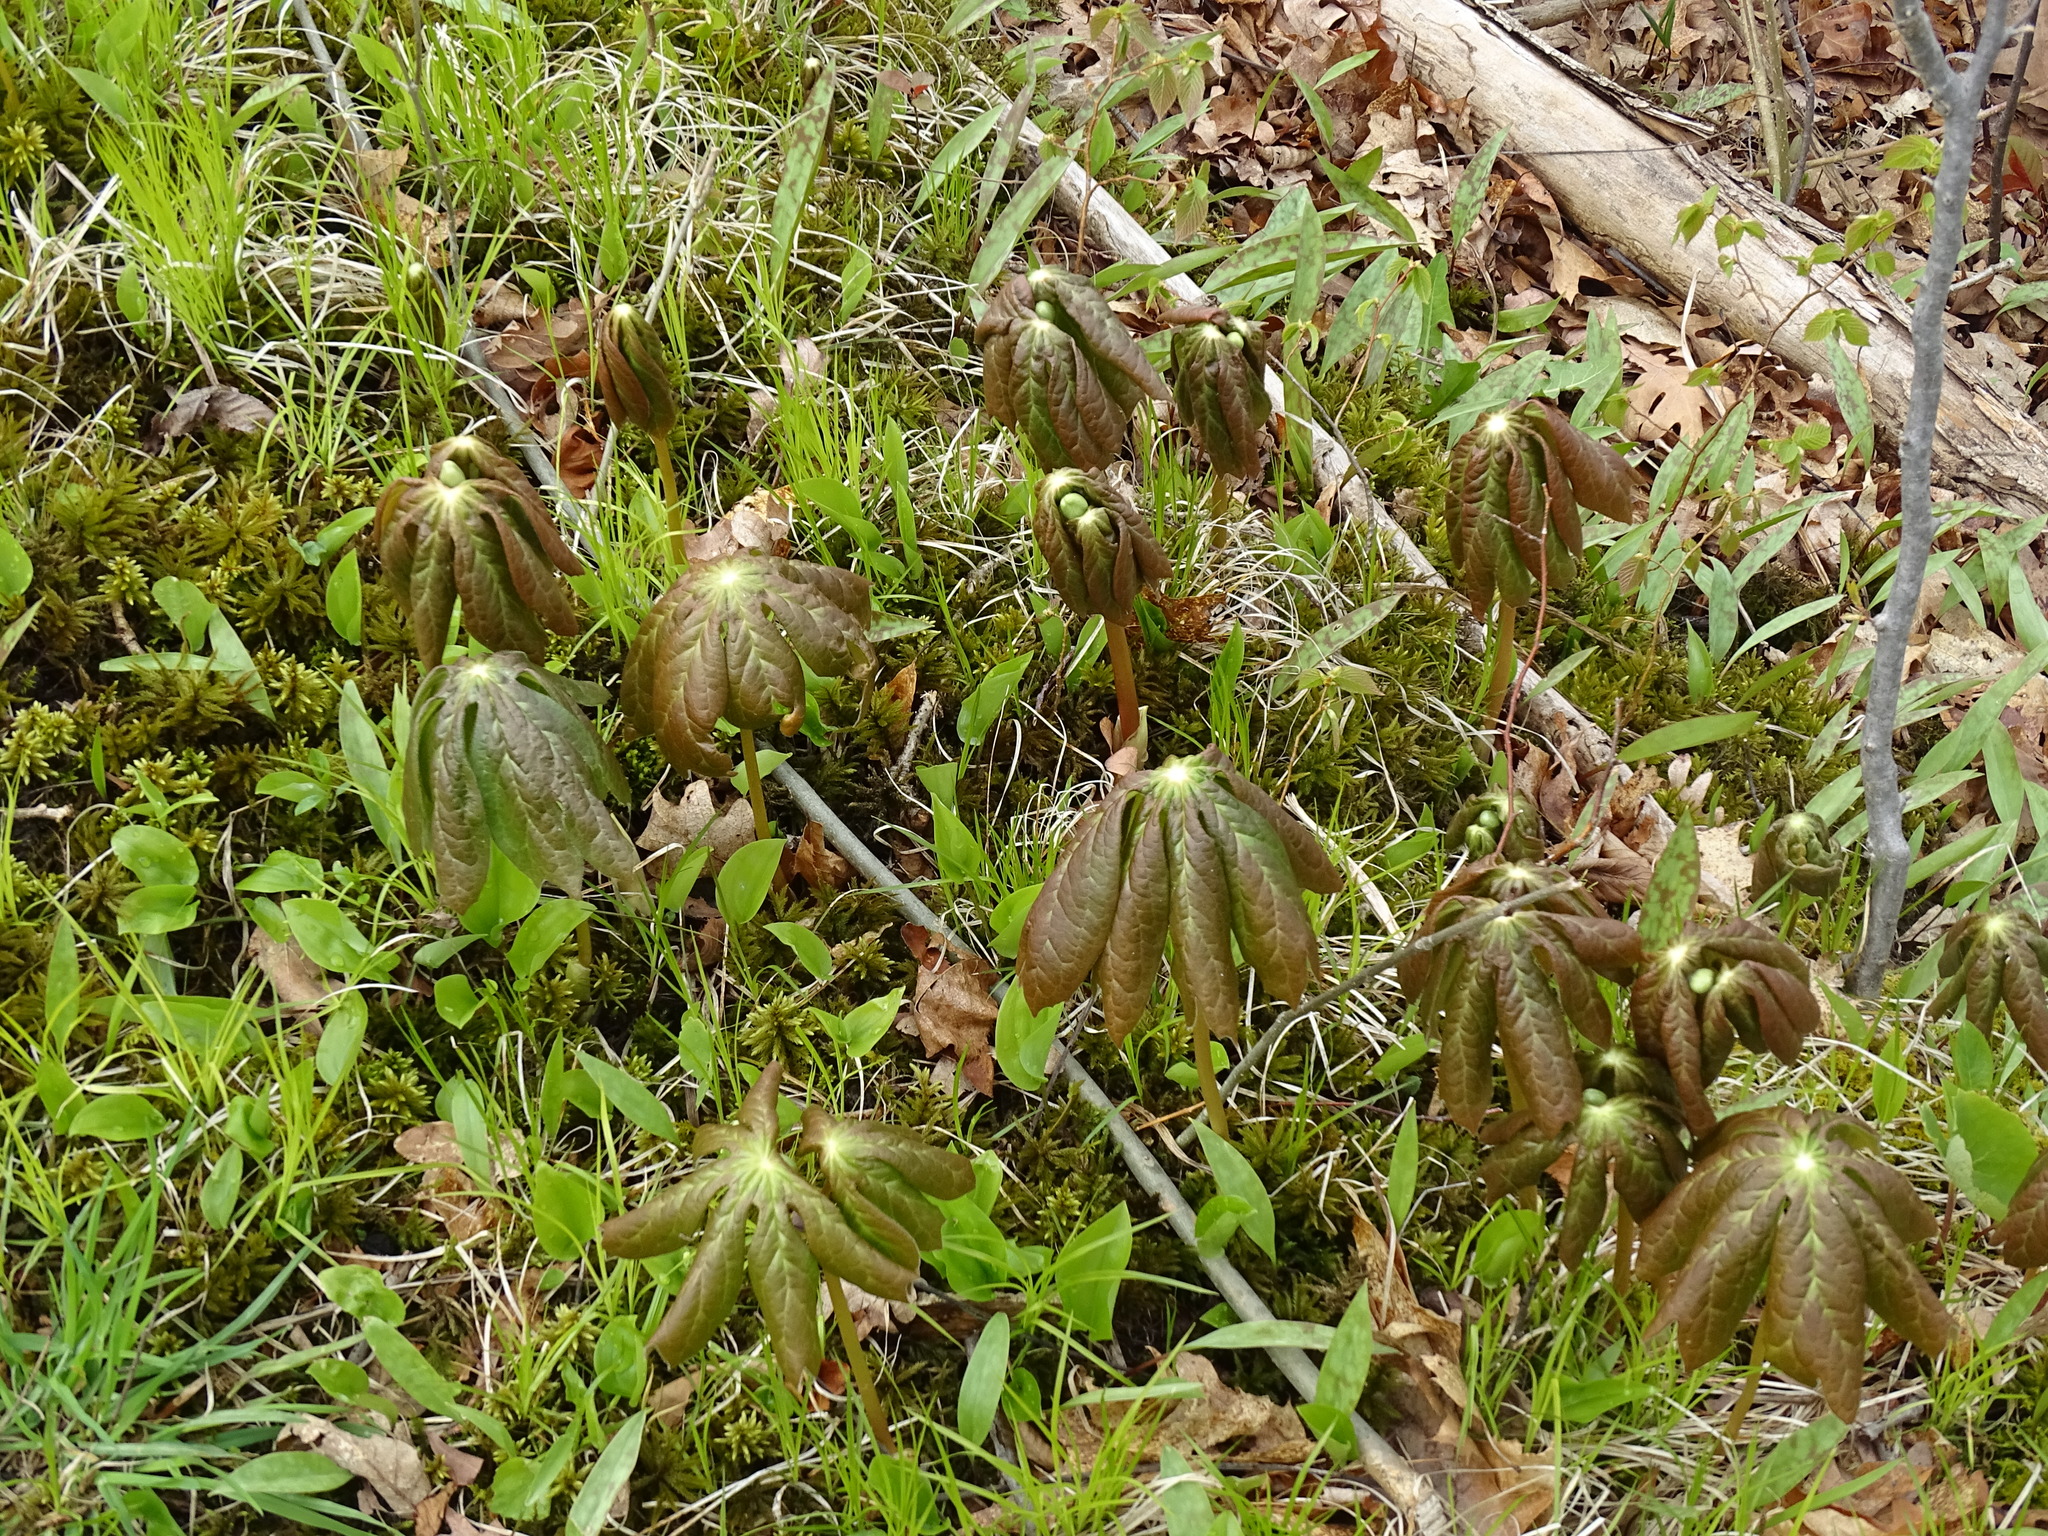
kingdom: Plantae
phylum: Tracheophyta
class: Magnoliopsida
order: Ranunculales
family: Berberidaceae
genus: Podophyllum
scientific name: Podophyllum peltatum
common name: Wild mandrake
